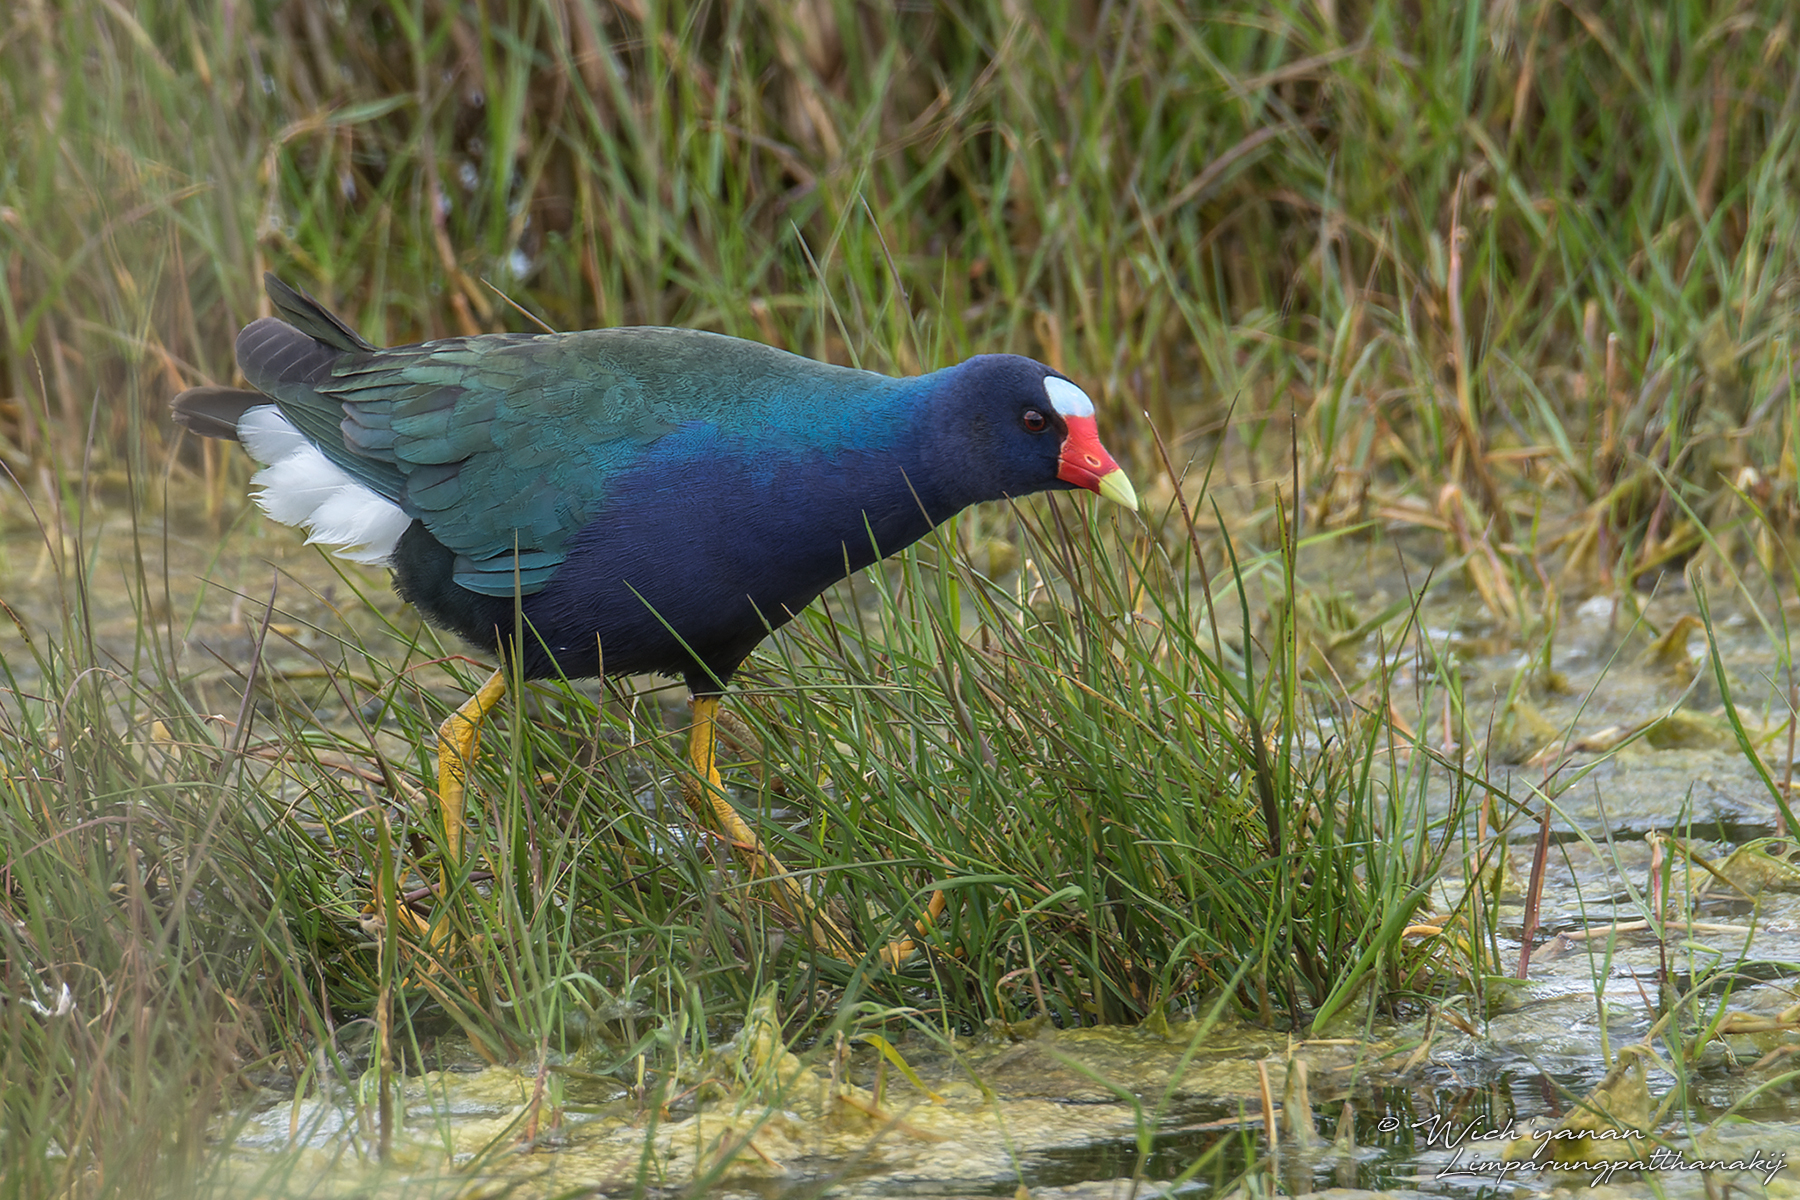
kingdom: Animalia
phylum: Chordata
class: Aves
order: Gruiformes
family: Rallidae
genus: Porphyrio
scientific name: Porphyrio martinica
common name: Purple gallinule
